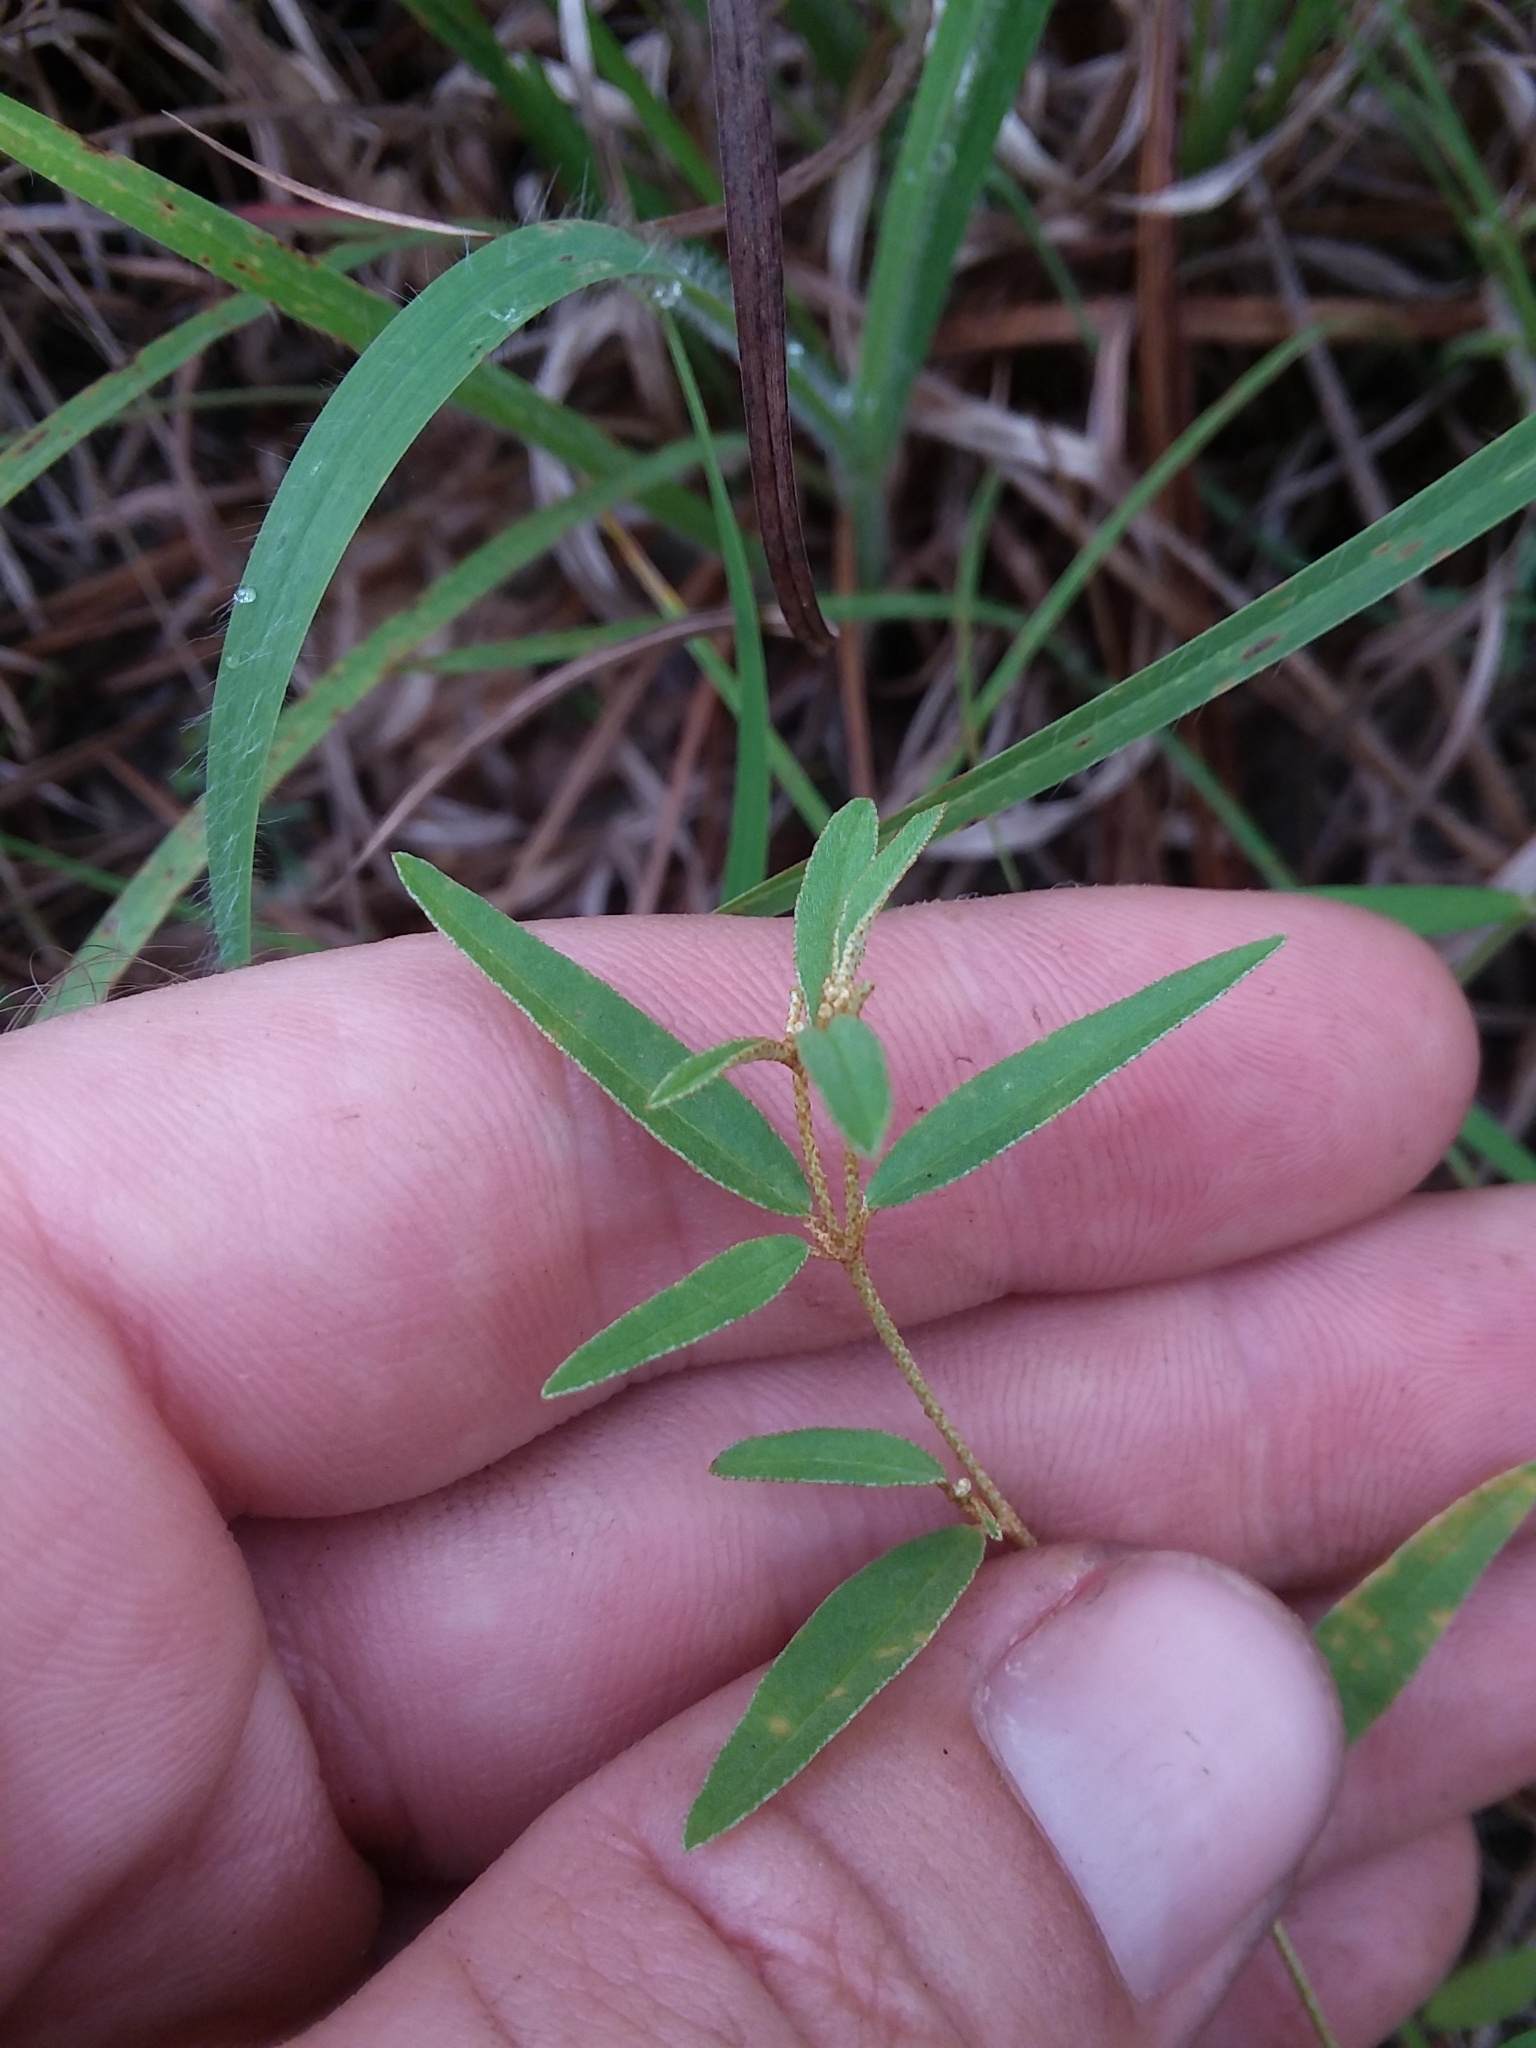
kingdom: Plantae
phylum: Tracheophyta
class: Magnoliopsida
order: Malpighiales
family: Euphorbiaceae
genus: Croton
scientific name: Croton michauxii
